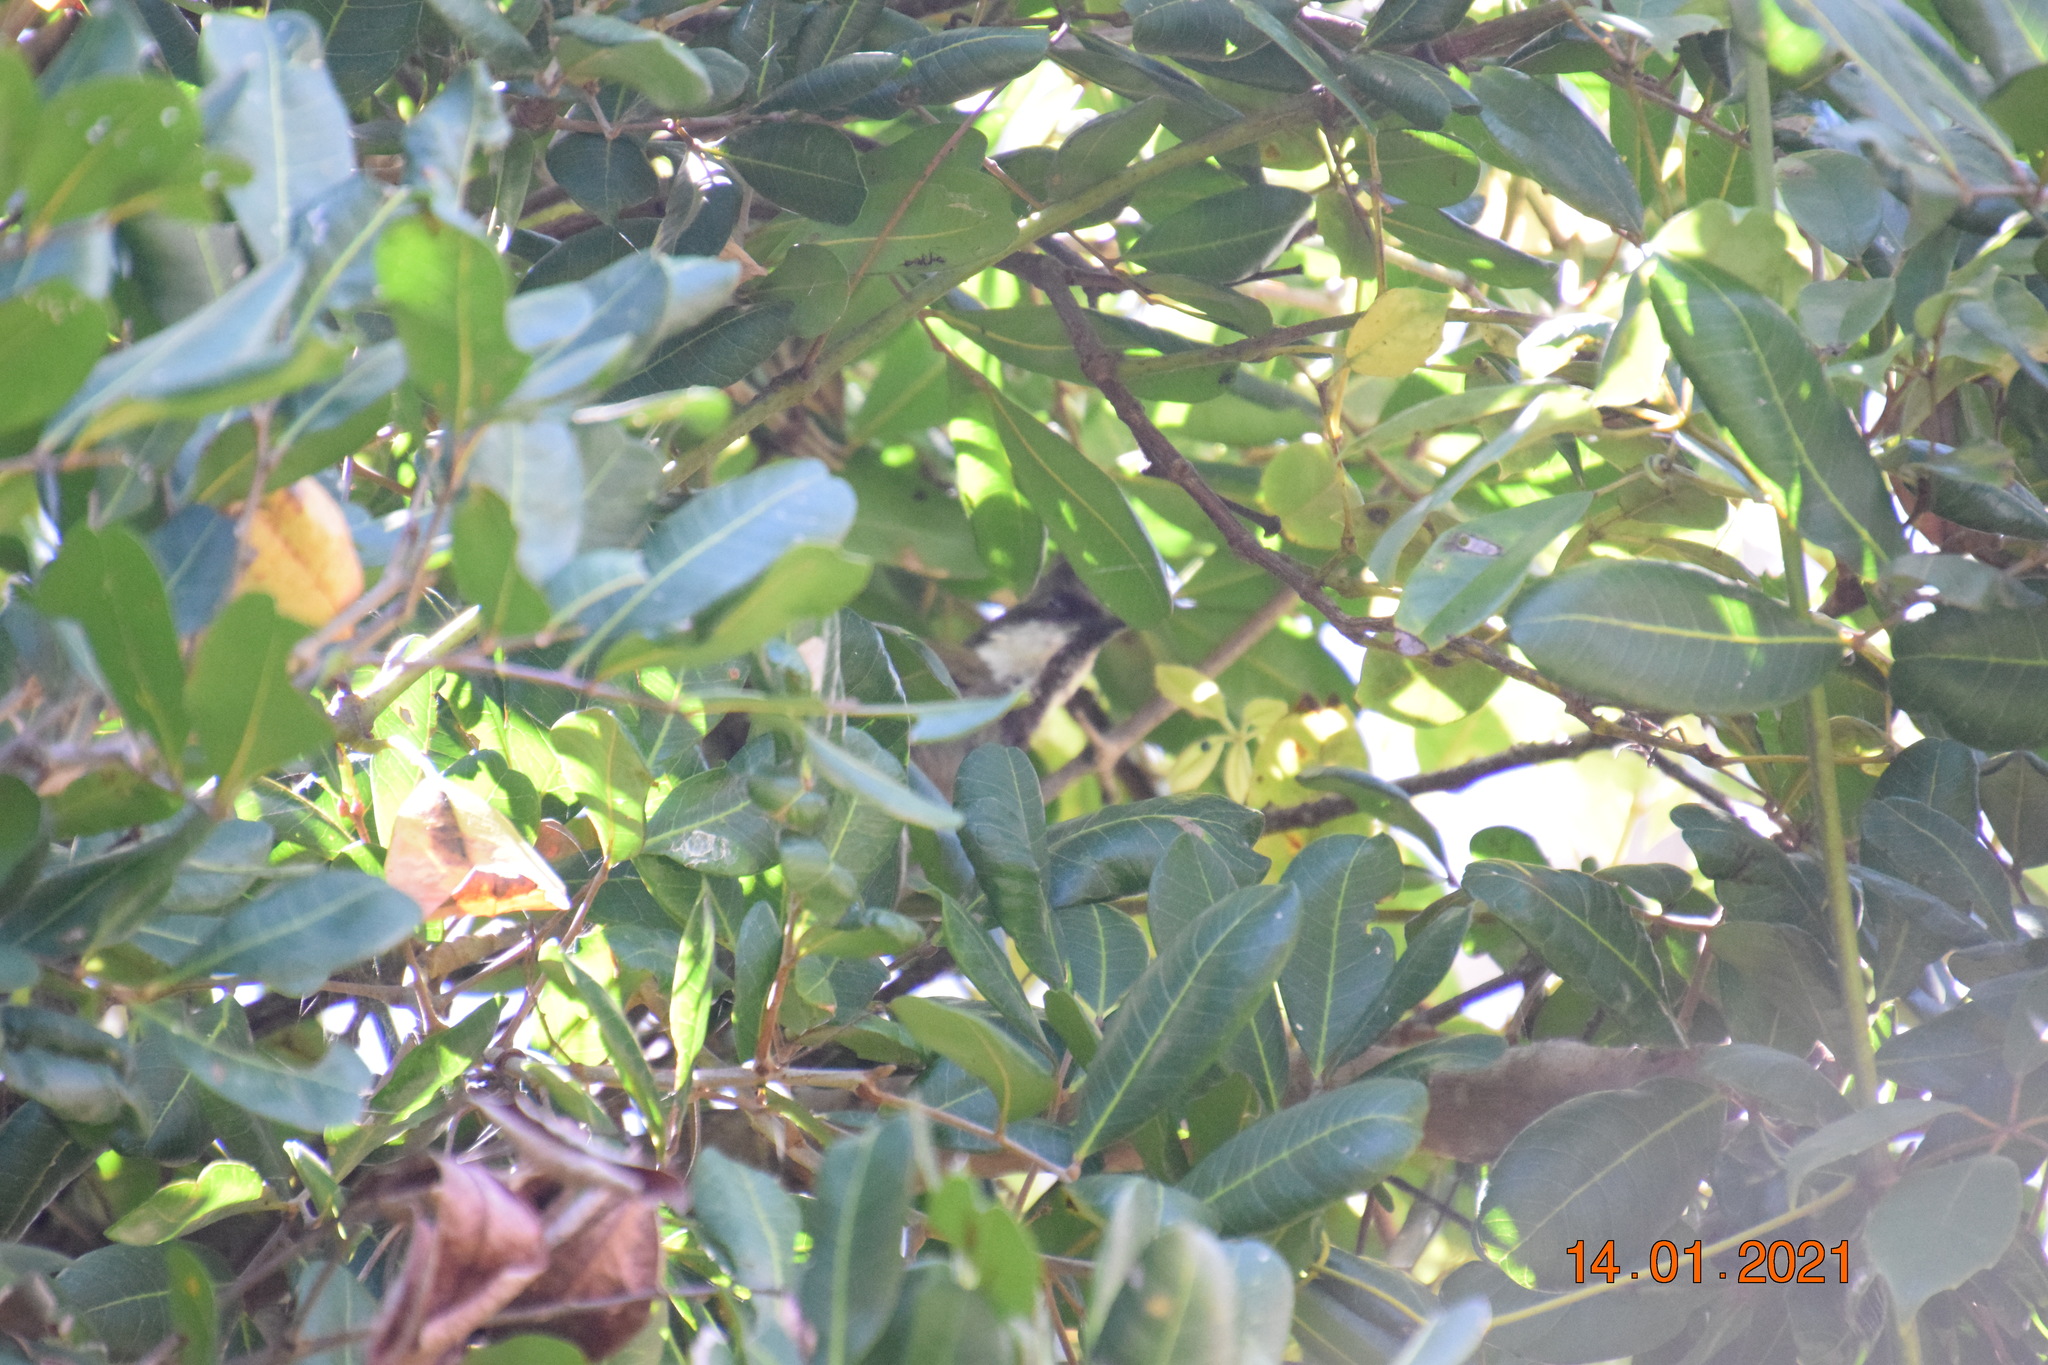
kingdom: Animalia
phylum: Chordata
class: Aves
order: Passeriformes
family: Psophodidae
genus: Psophodes
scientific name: Psophodes olivaceus
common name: Eastern whipbird
